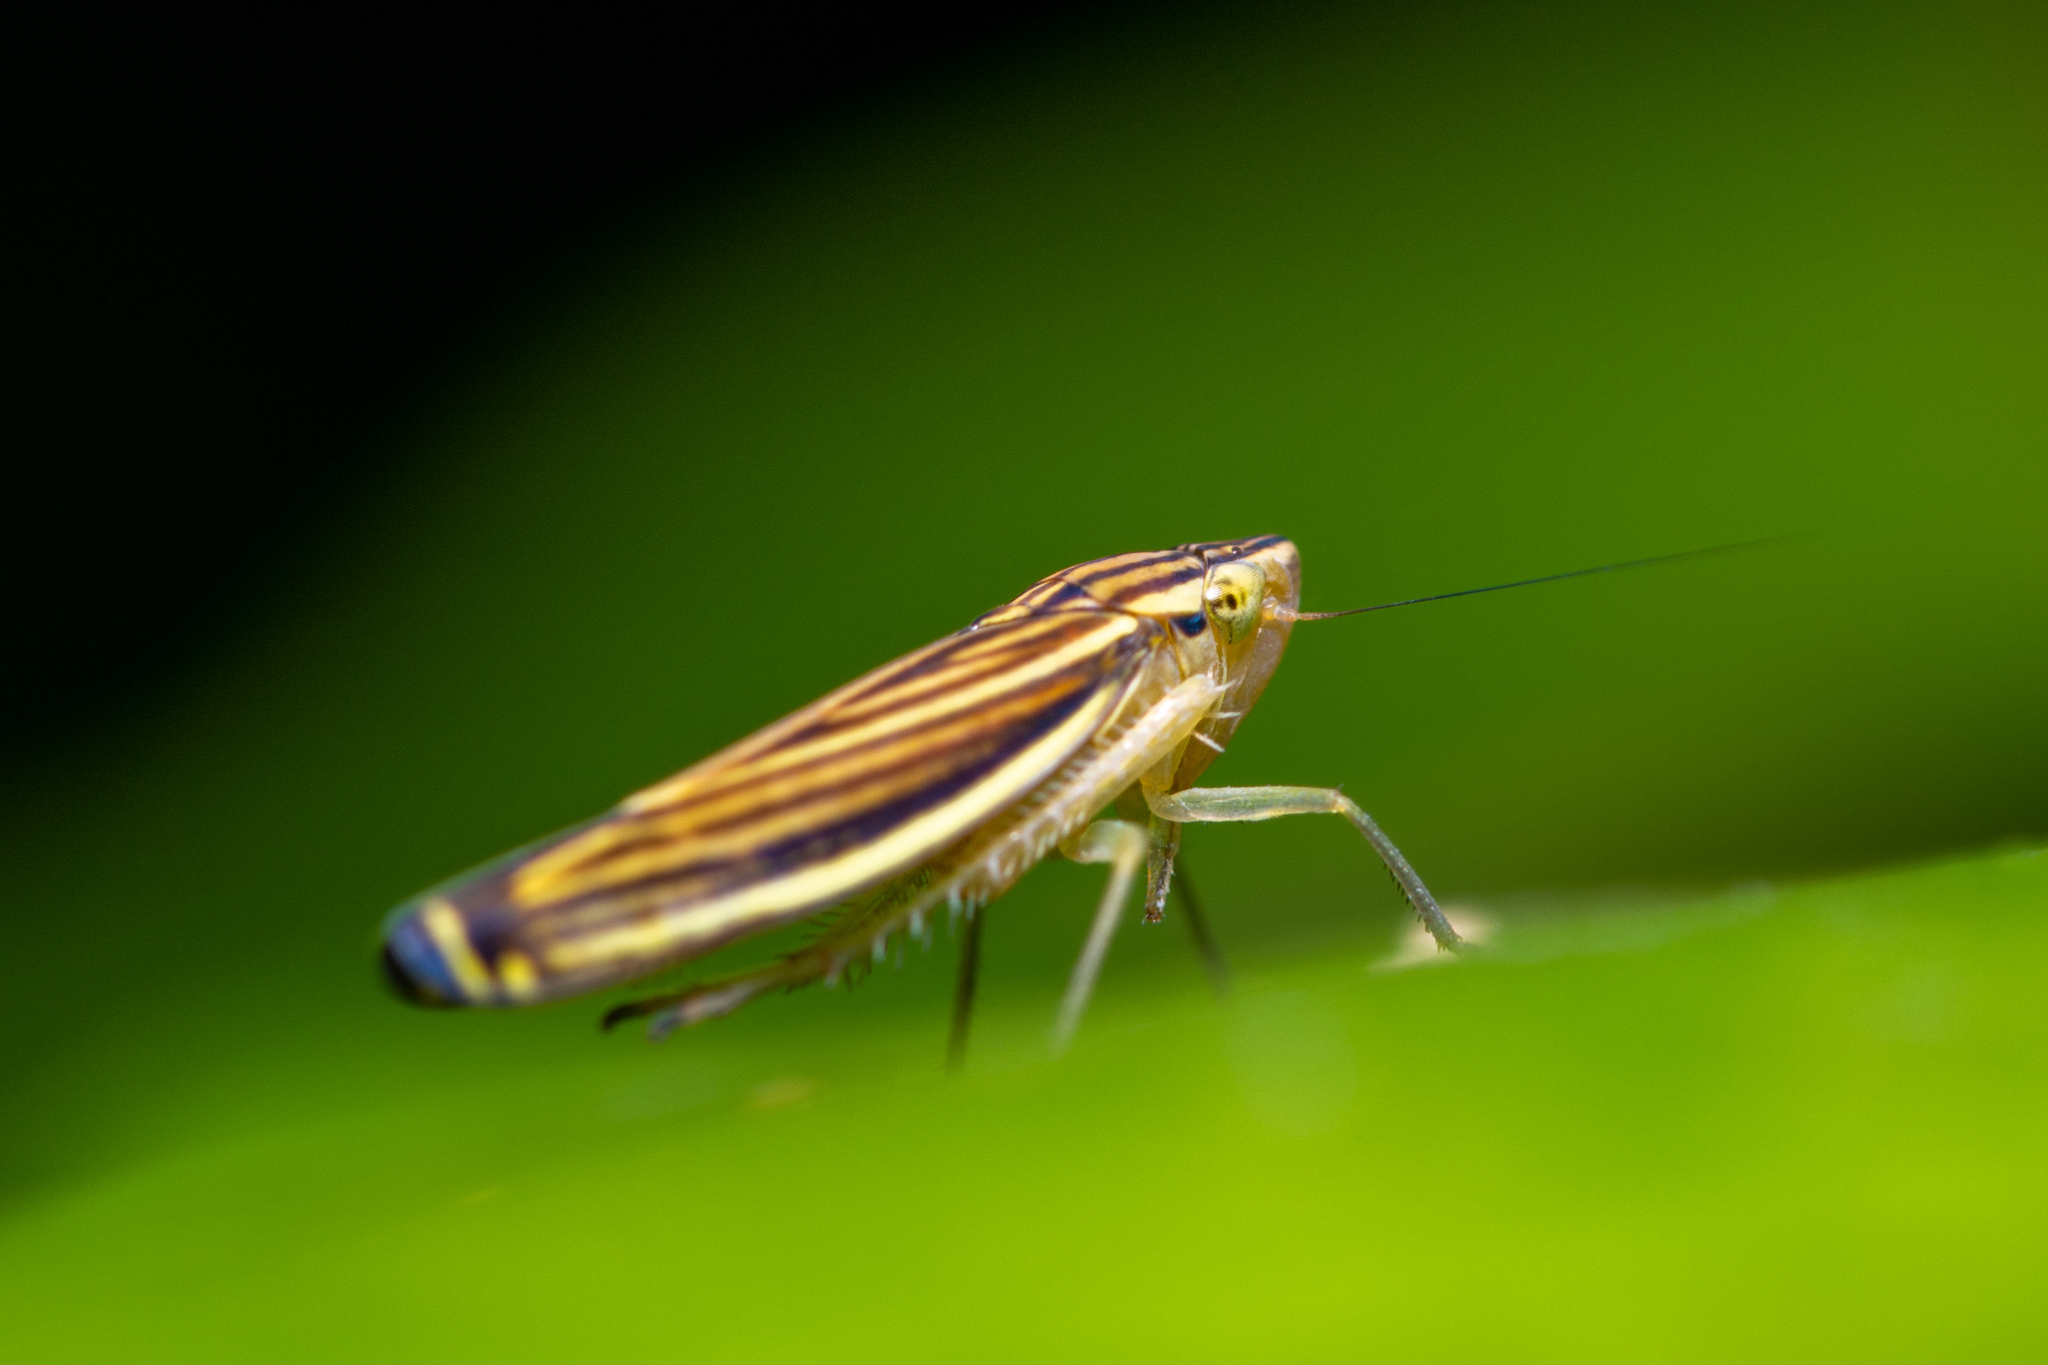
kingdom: Animalia
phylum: Arthropoda
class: Insecta
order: Hemiptera
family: Cicadellidae
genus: Sibovia
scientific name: Sibovia occatoria
